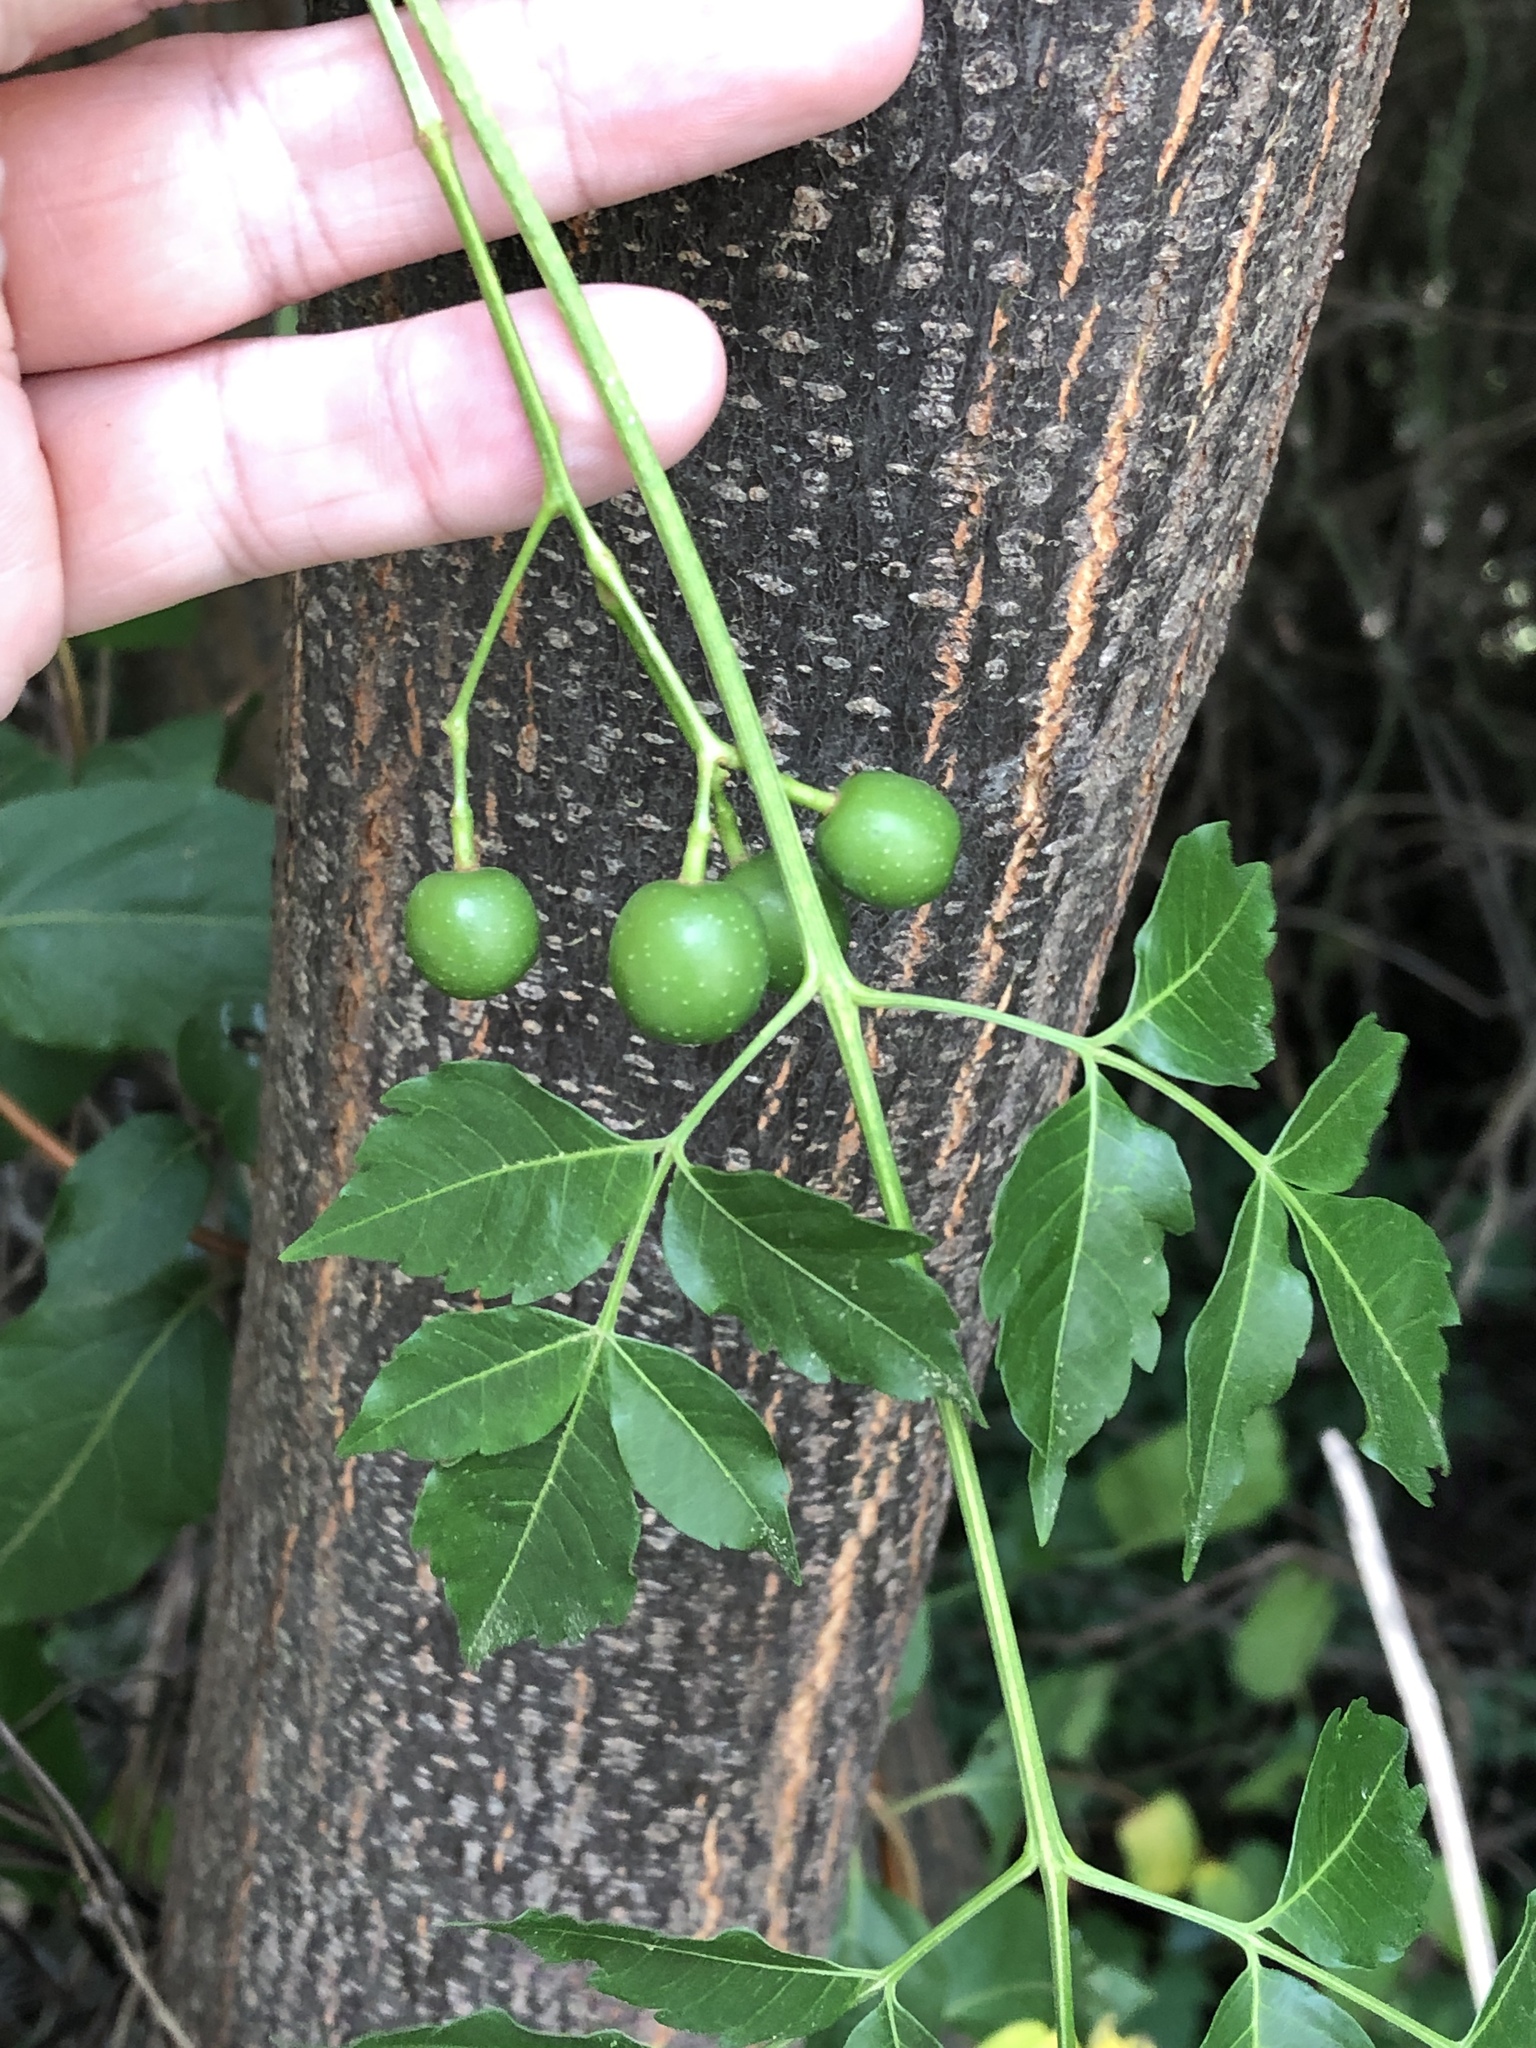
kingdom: Plantae
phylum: Tracheophyta
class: Magnoliopsida
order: Sapindales
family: Meliaceae
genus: Melia
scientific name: Melia azedarach
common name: Chinaberrytree
